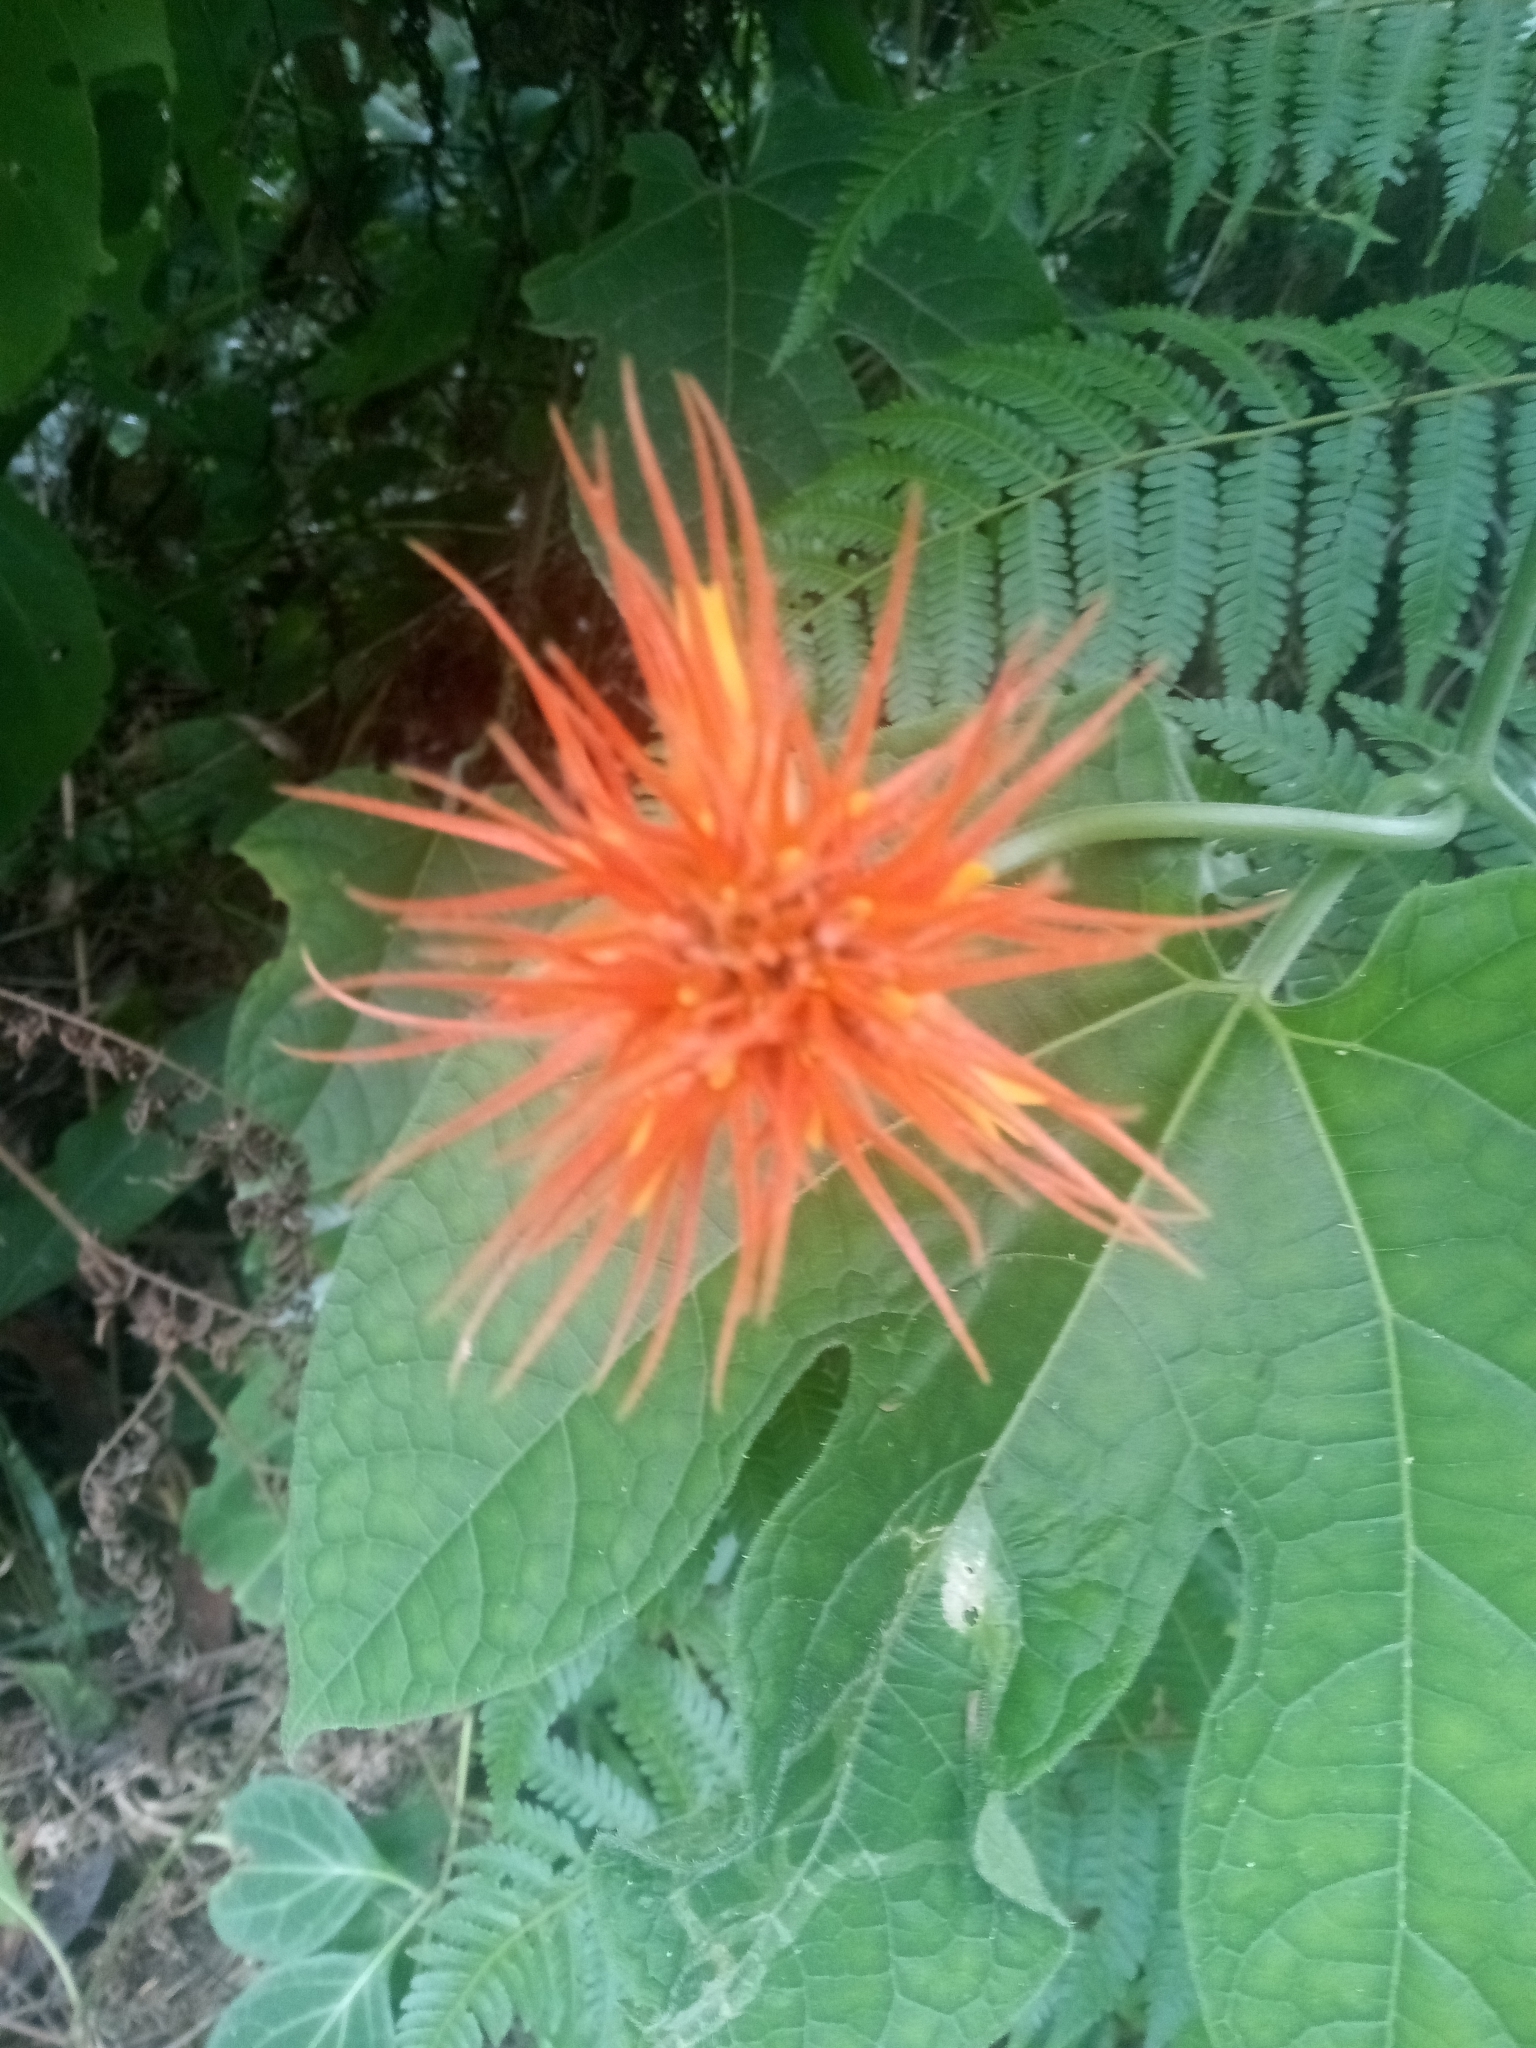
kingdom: Plantae
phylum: Tracheophyta
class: Magnoliopsida
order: Cucurbitales
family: Cucurbitaceae
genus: Gurania
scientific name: Gurania makoyana
